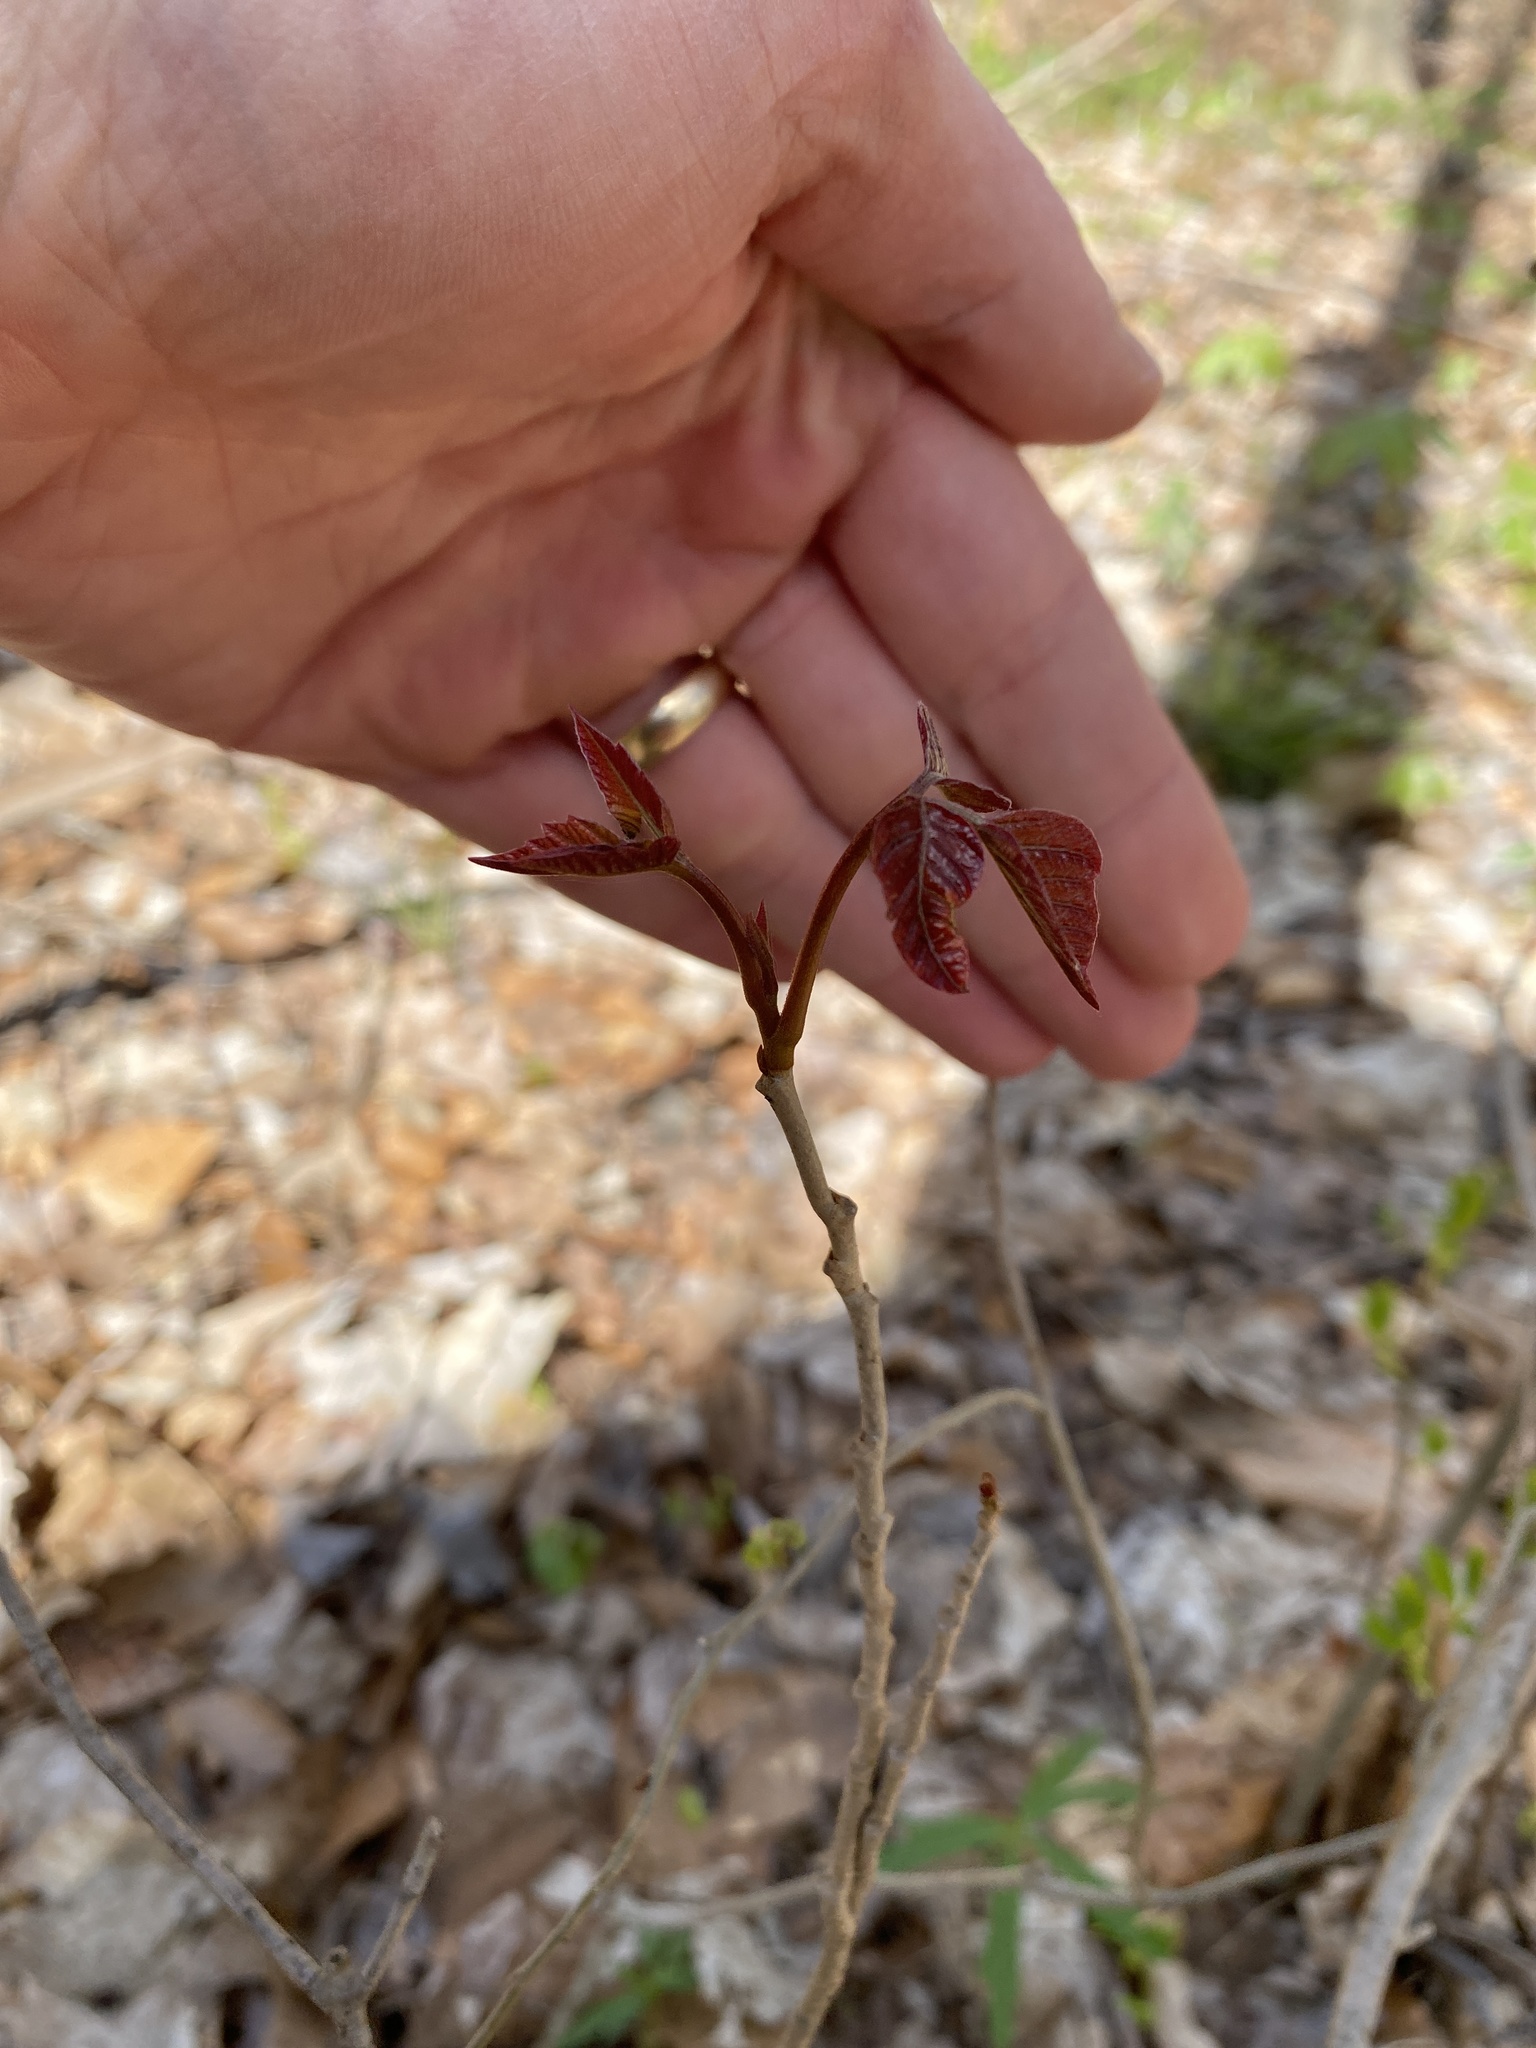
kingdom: Plantae
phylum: Tracheophyta
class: Magnoliopsida
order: Sapindales
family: Anacardiaceae
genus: Toxicodendron
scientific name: Toxicodendron radicans
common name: Poison ivy
